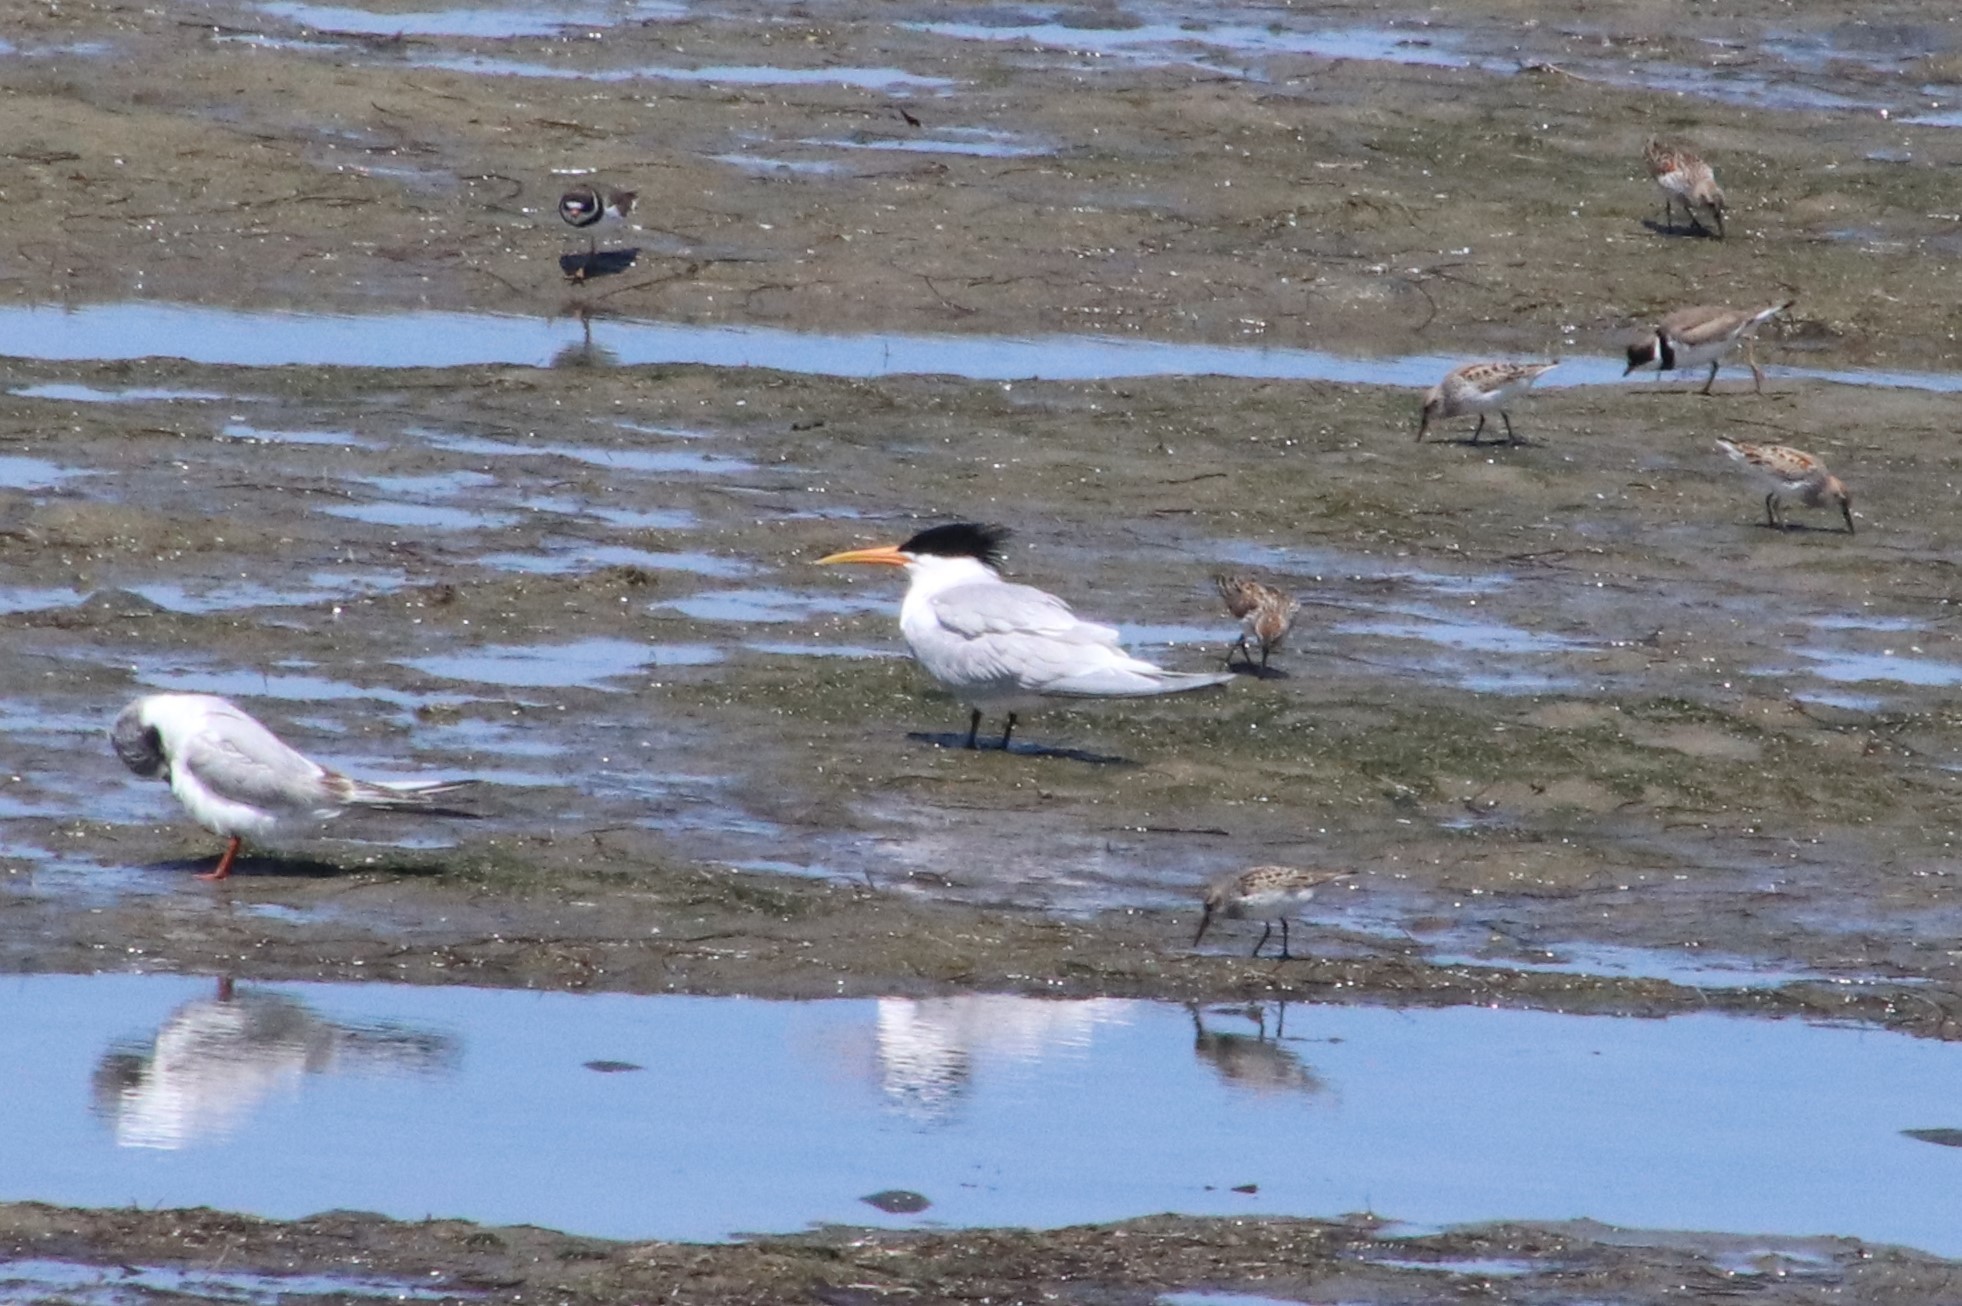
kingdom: Animalia
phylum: Chordata
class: Aves
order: Charadriiformes
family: Laridae
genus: Thalasseus
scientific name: Thalasseus elegans
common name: Elegant tern
